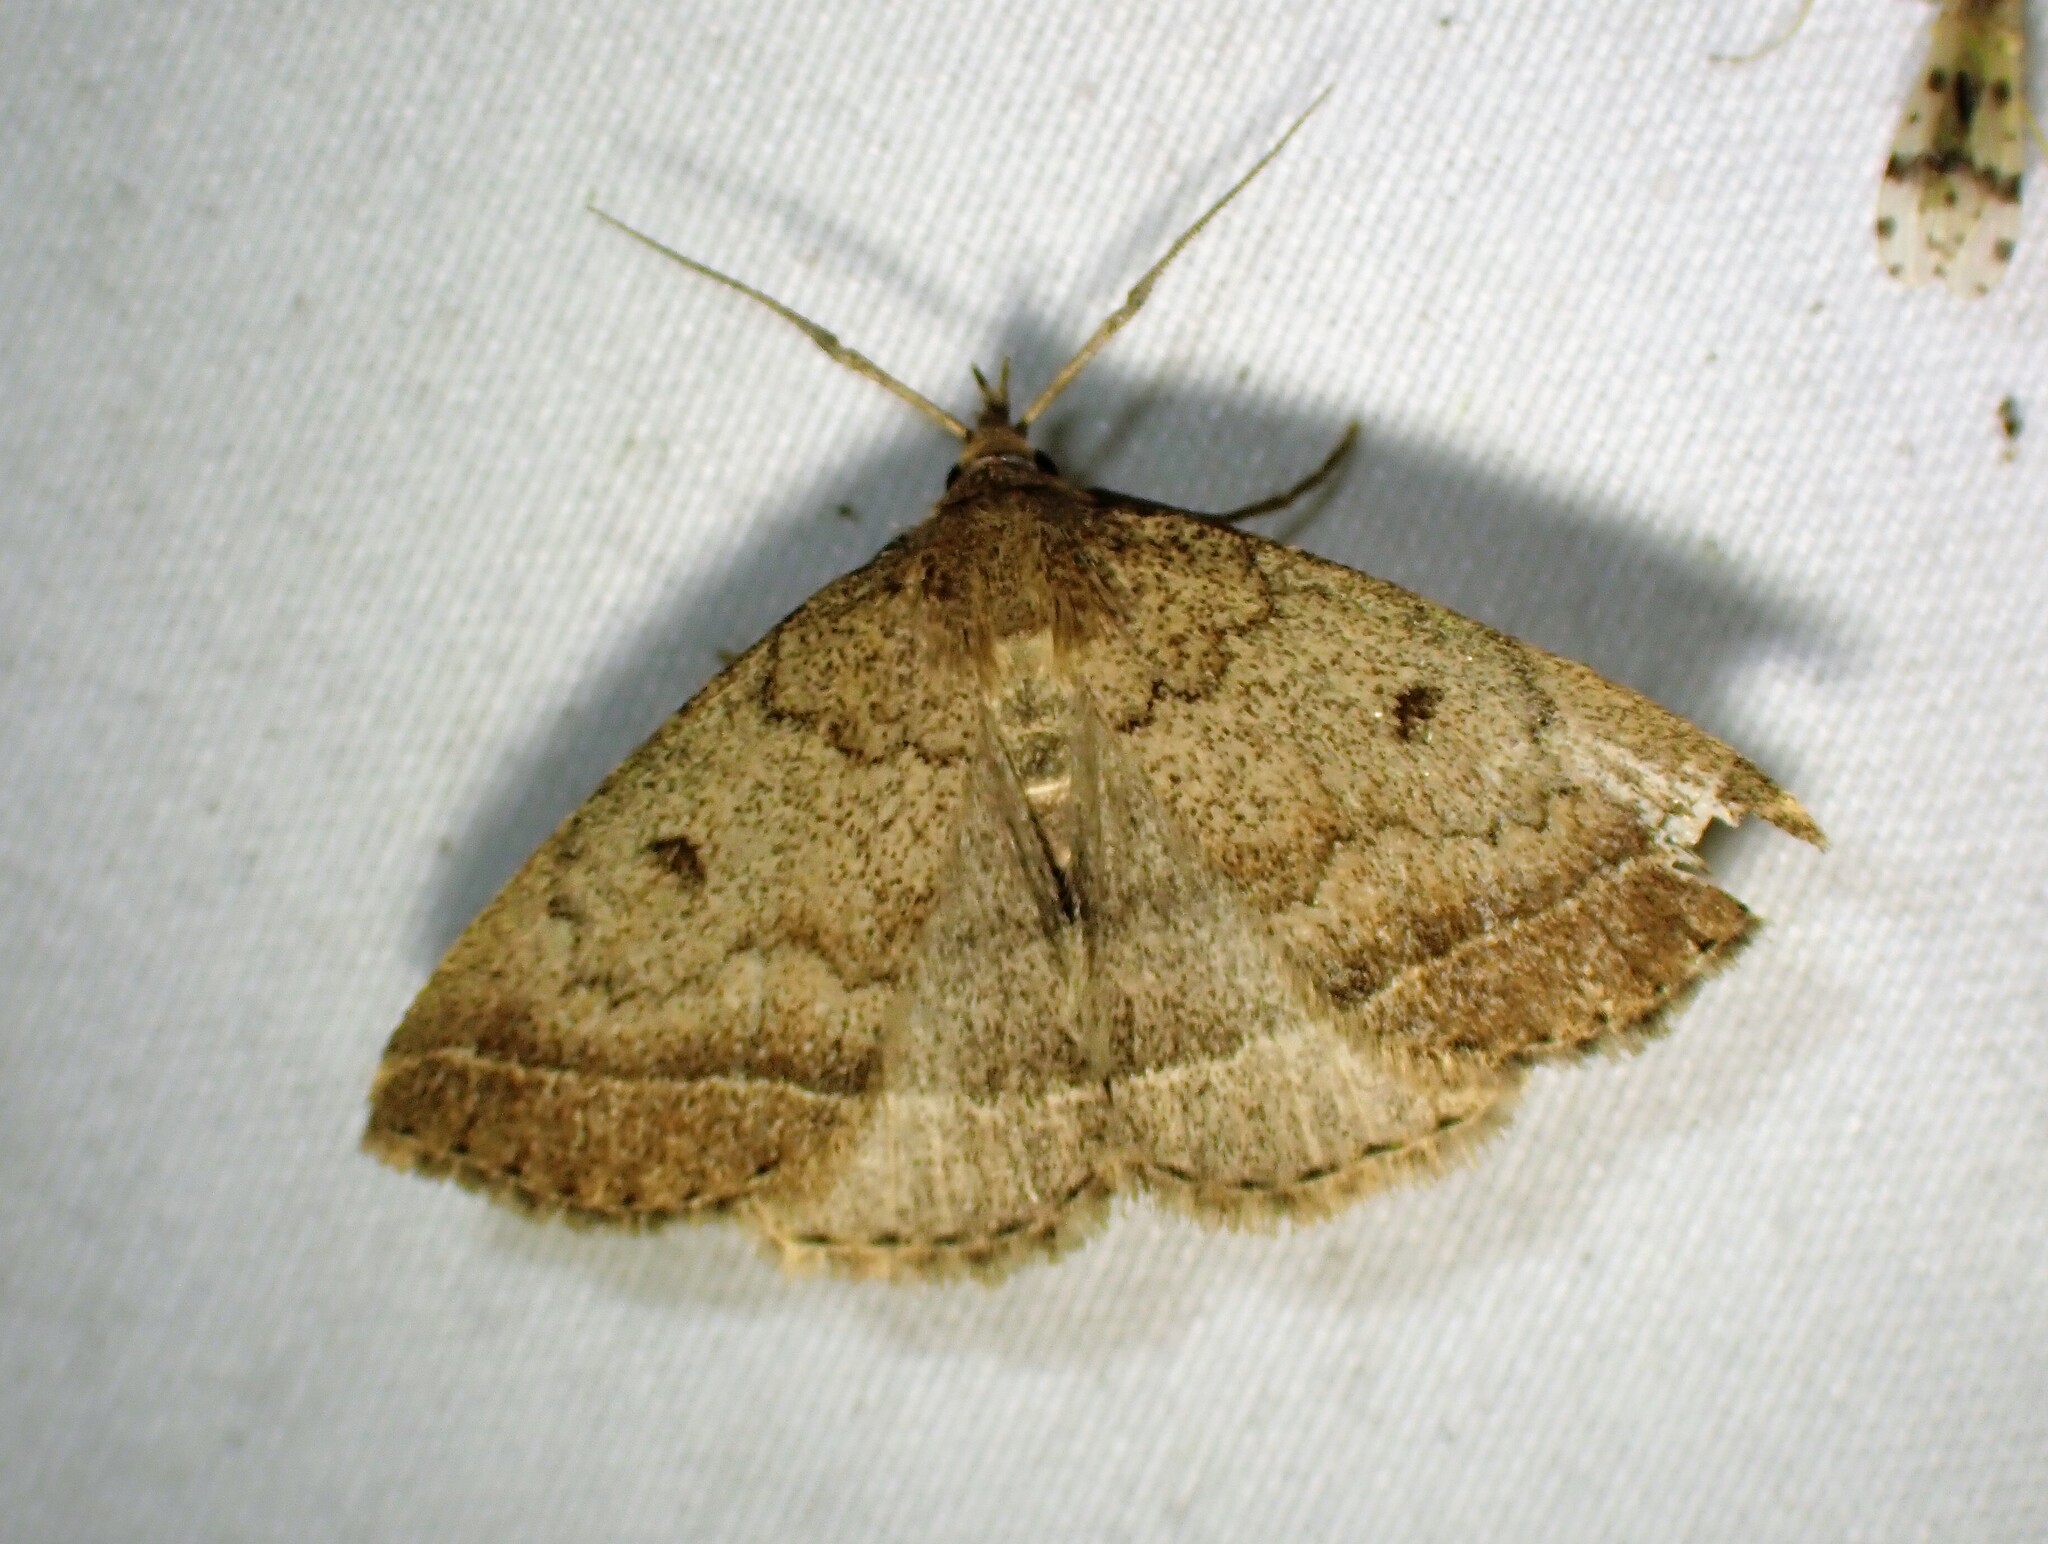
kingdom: Animalia
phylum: Arthropoda
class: Insecta
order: Lepidoptera
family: Erebidae
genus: Zanclognatha
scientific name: Zanclognatha jacchusalis
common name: Yellowish zanclognatha
